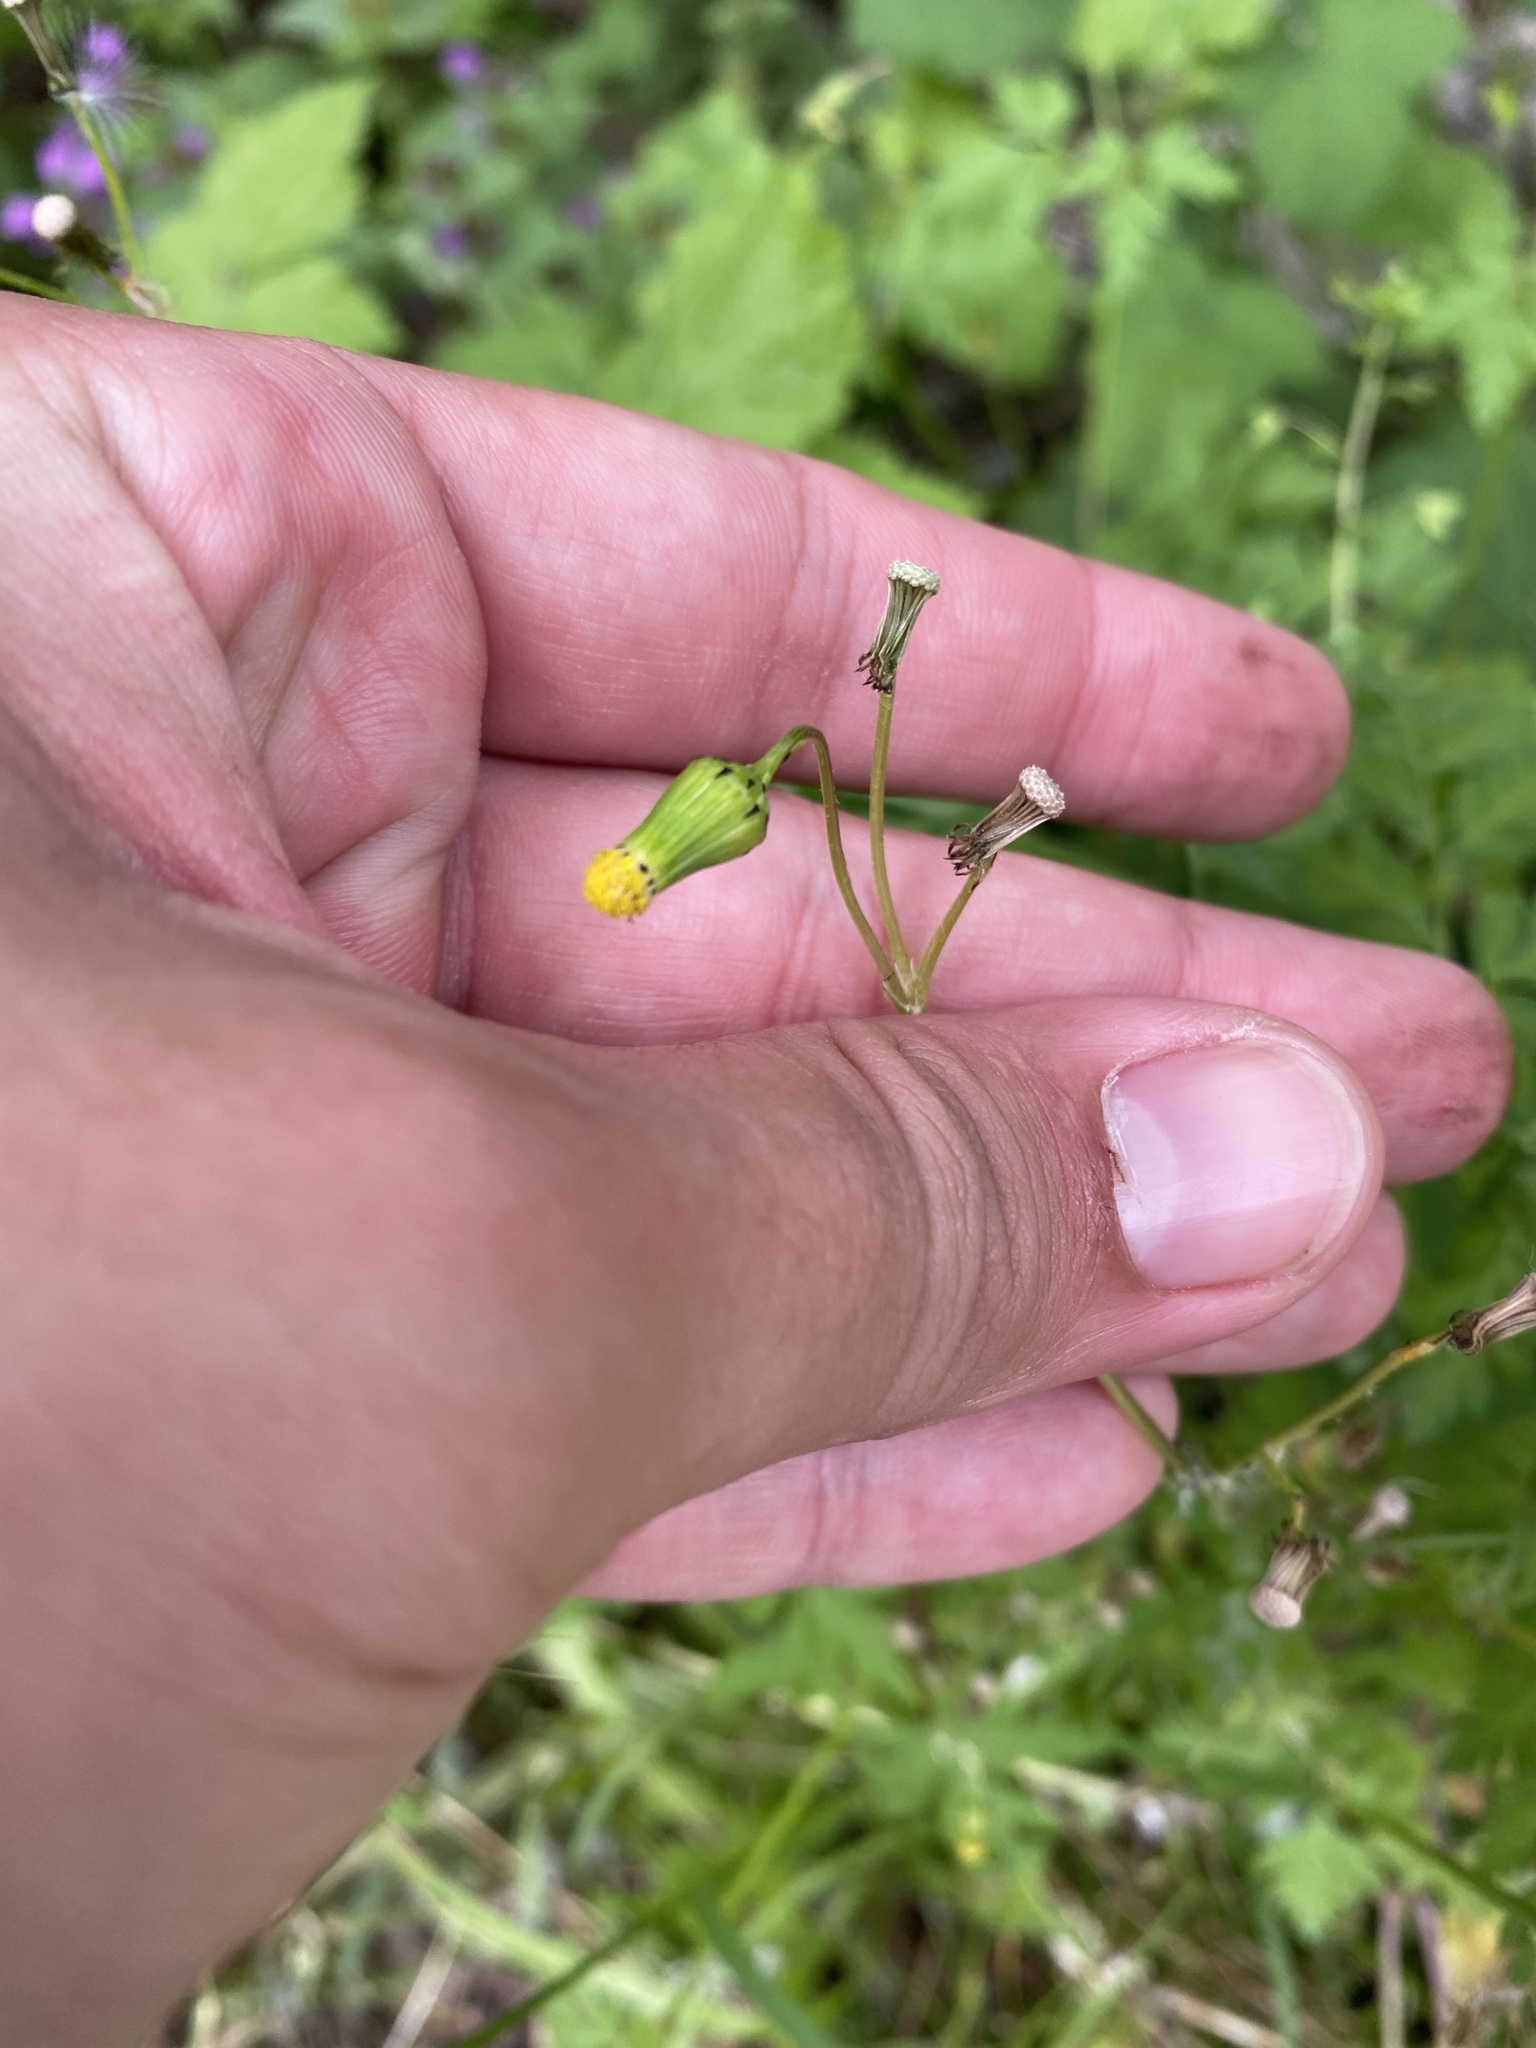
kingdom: Plantae
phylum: Tracheophyta
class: Magnoliopsida
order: Asterales
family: Asteraceae
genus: Senecio
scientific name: Senecio vulgaris
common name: Old-man-in-the-spring
